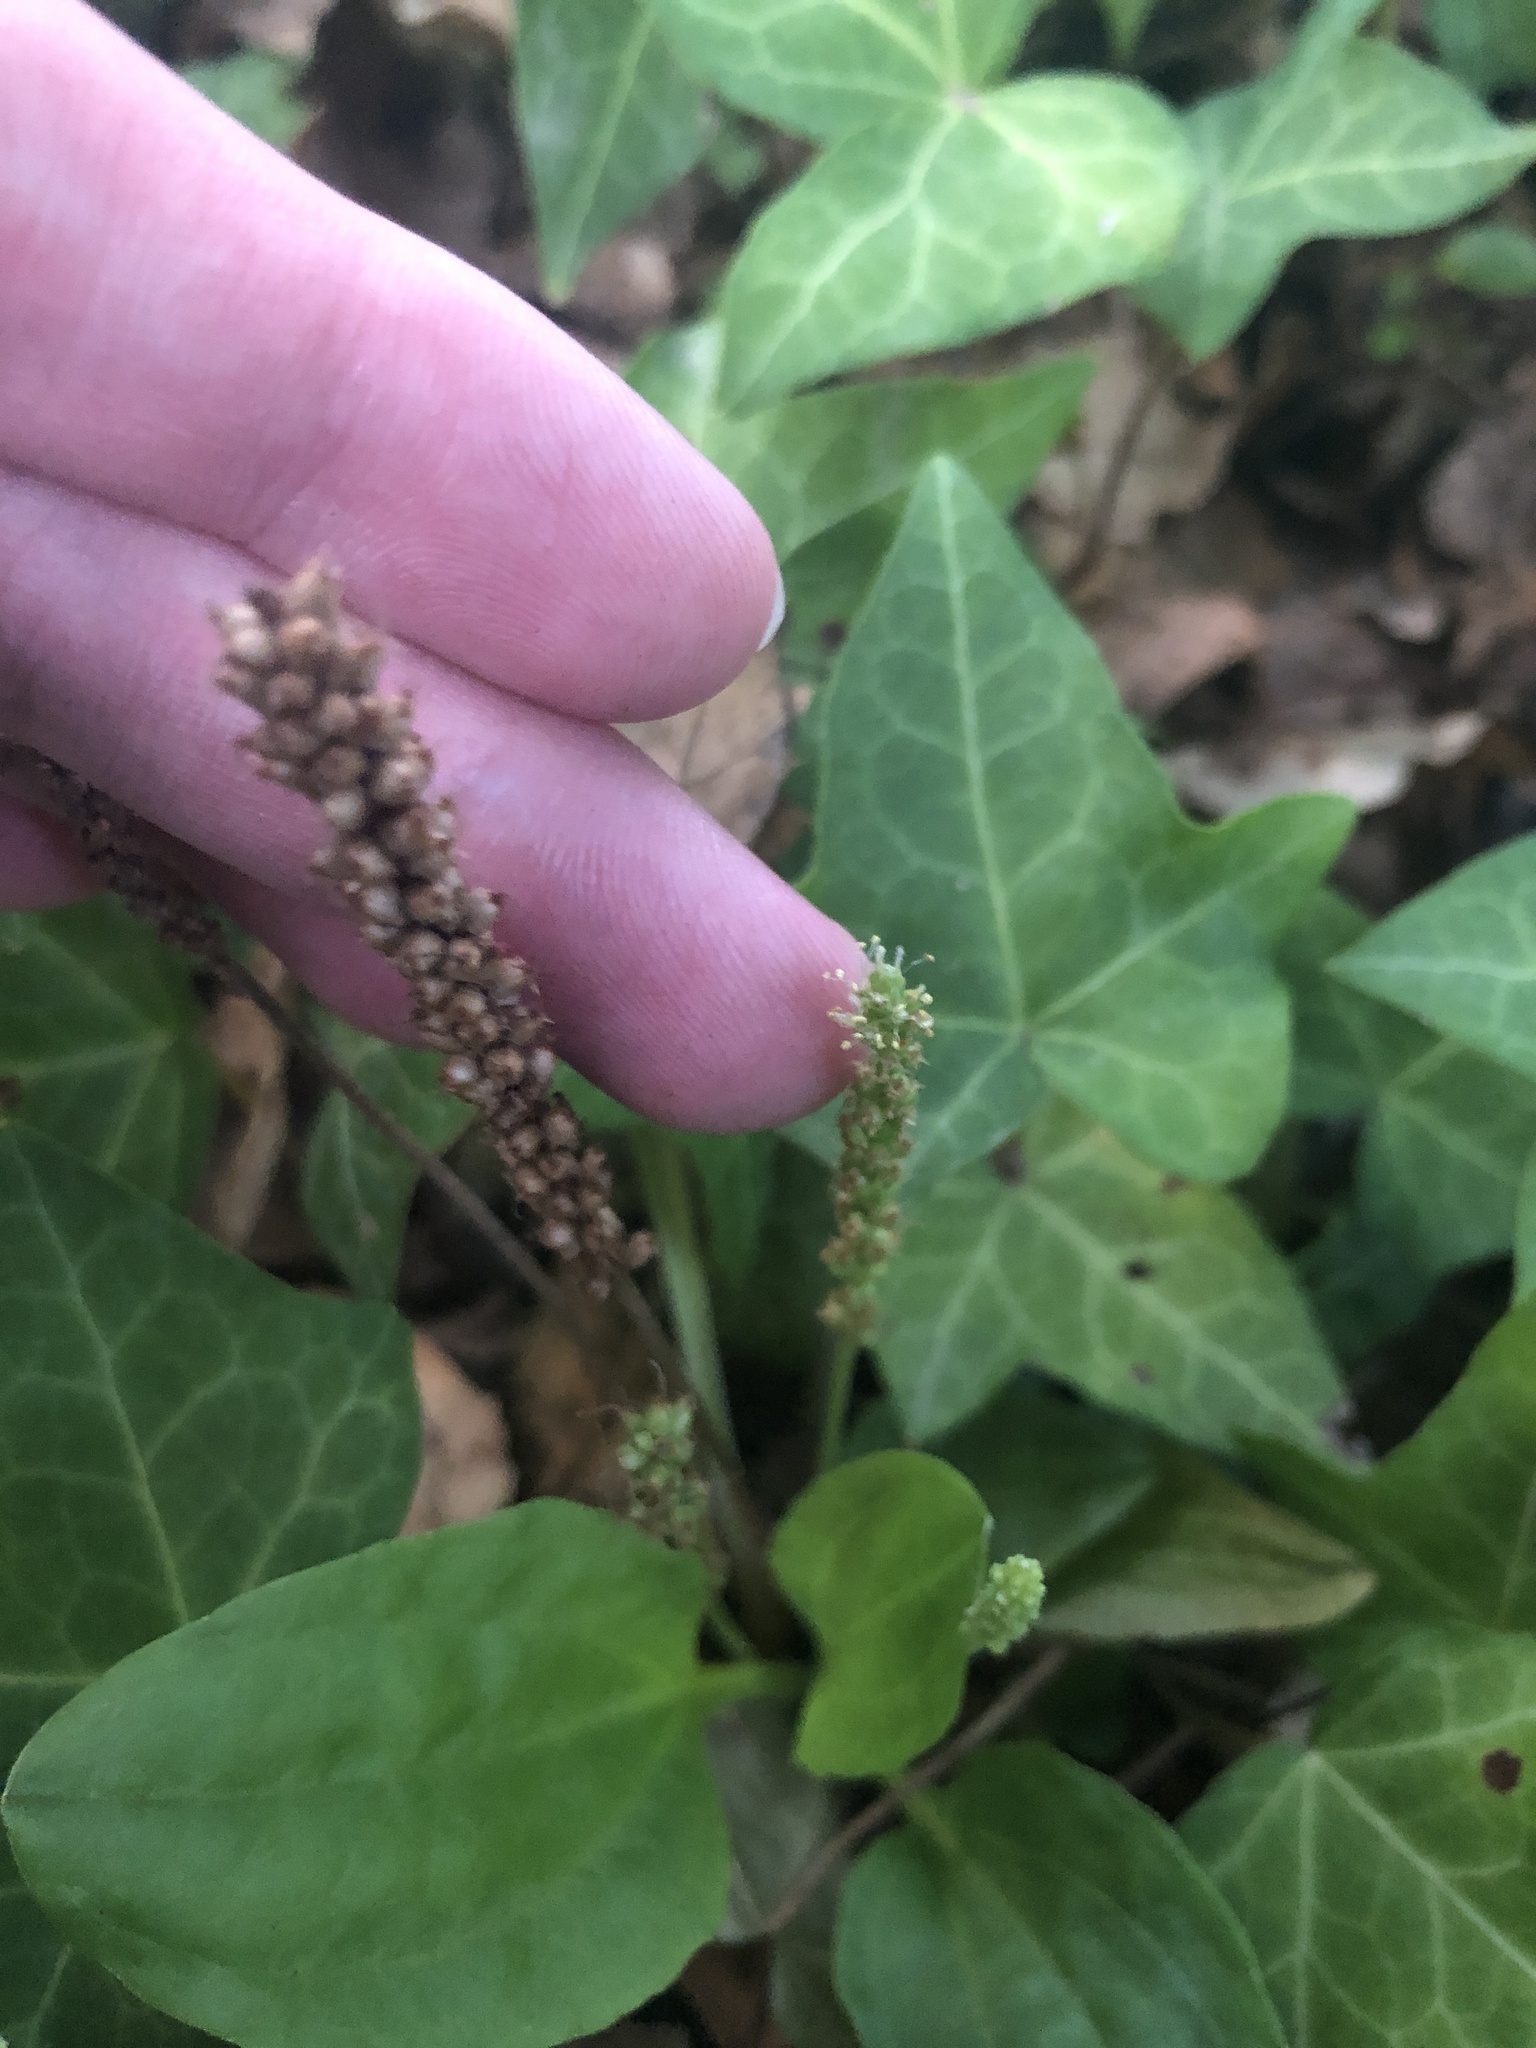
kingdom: Plantae
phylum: Tracheophyta
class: Magnoliopsida
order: Lamiales
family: Plantaginaceae
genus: Plantago
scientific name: Plantago major
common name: Common plantain
